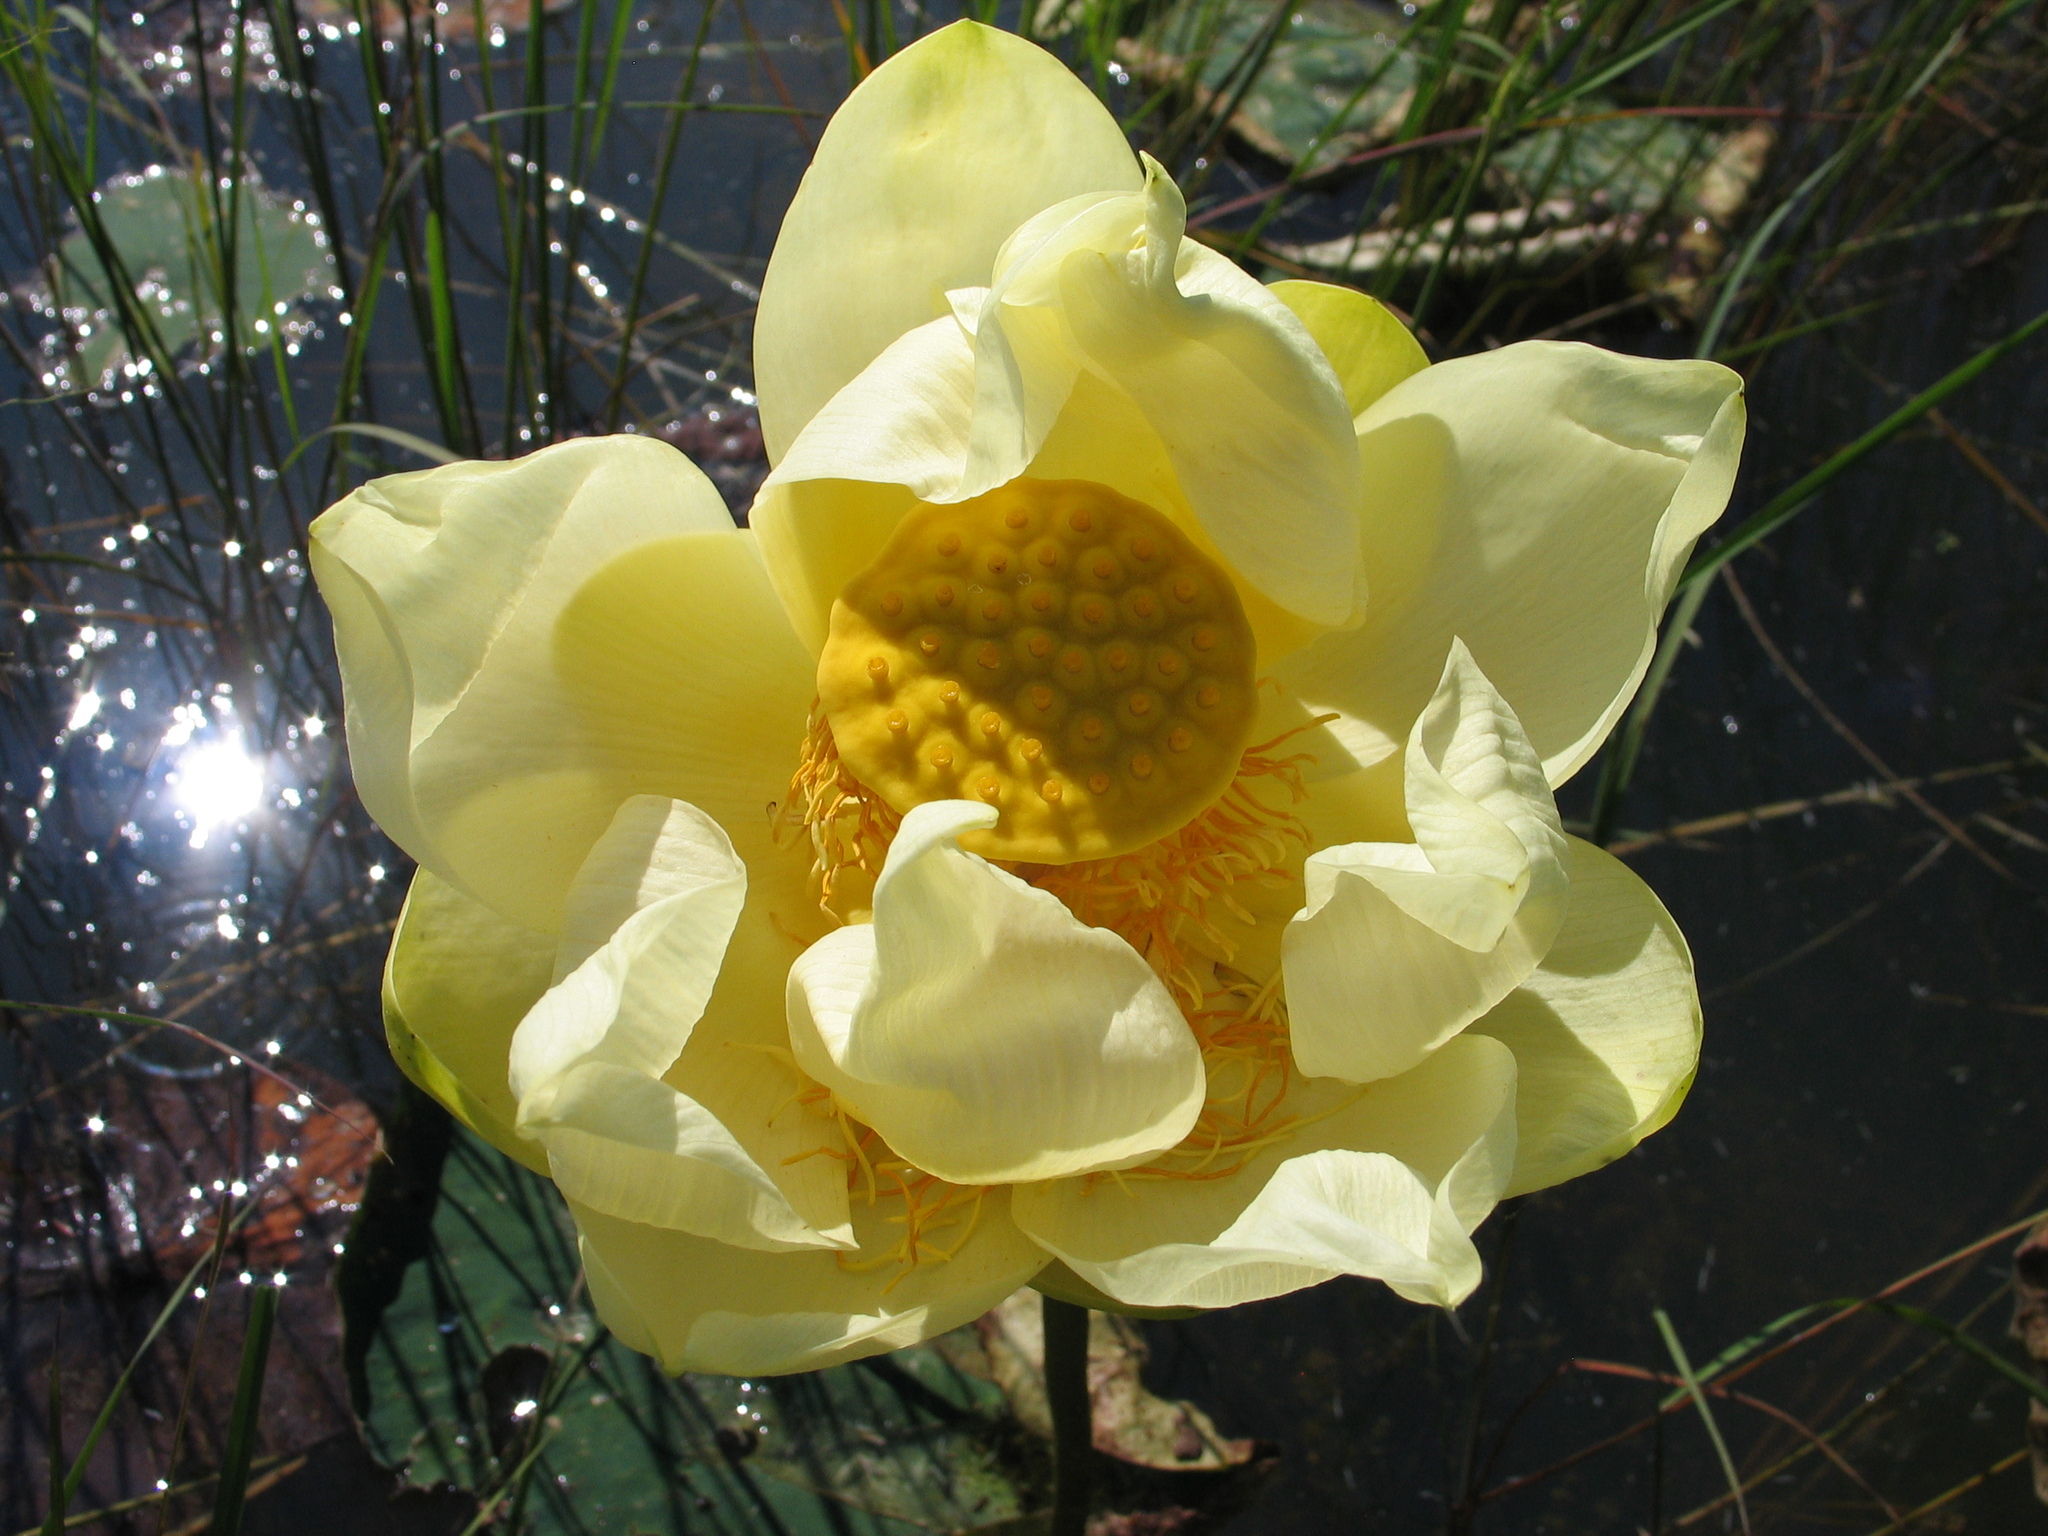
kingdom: Plantae
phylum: Tracheophyta
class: Magnoliopsida
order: Proteales
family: Nelumbonaceae
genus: Nelumbo
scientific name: Nelumbo lutea
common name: American lotus
